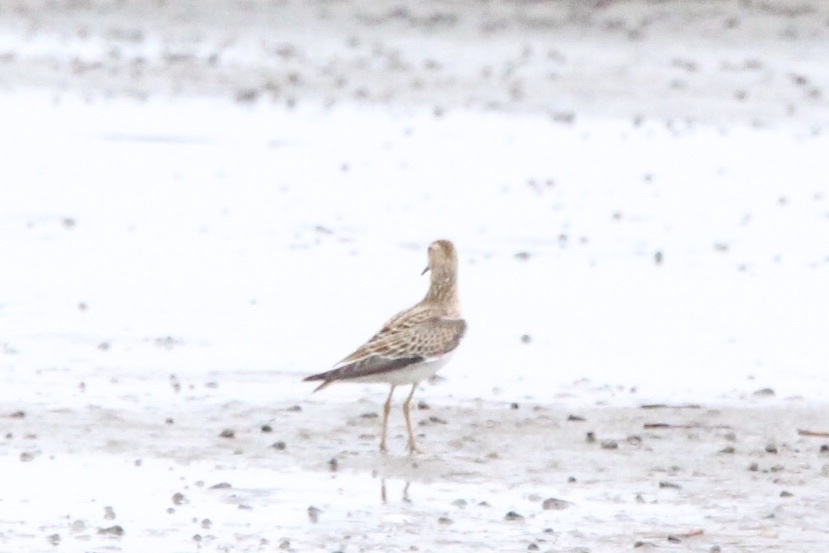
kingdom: Animalia
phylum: Chordata
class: Aves
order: Charadriiformes
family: Scolopacidae
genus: Calidris
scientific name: Calidris melanotos
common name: Pectoral sandpiper
